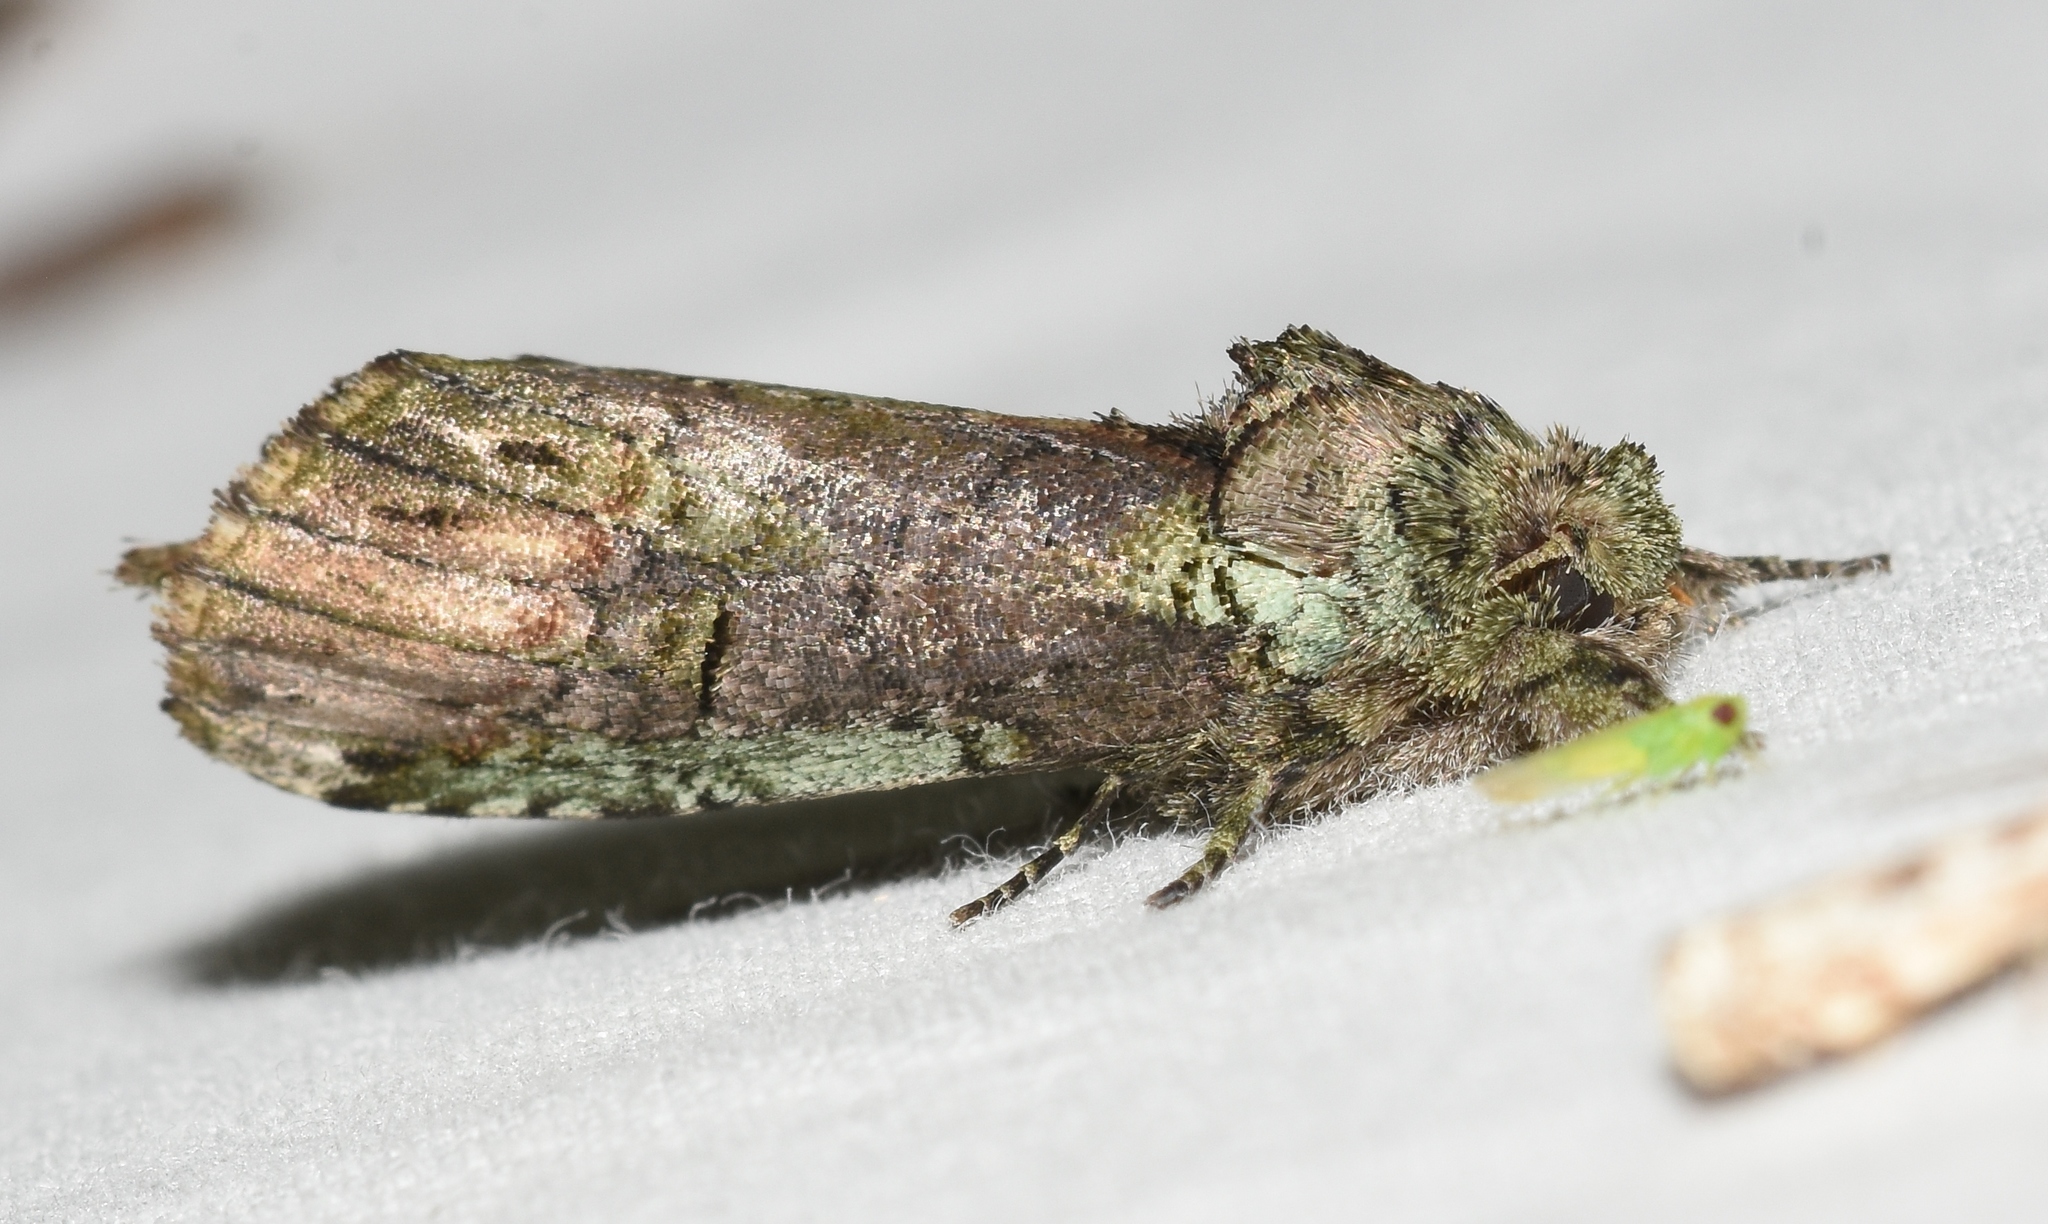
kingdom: Animalia
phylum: Arthropoda
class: Insecta
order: Lepidoptera
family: Notodontidae
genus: Schizura
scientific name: Schizura
